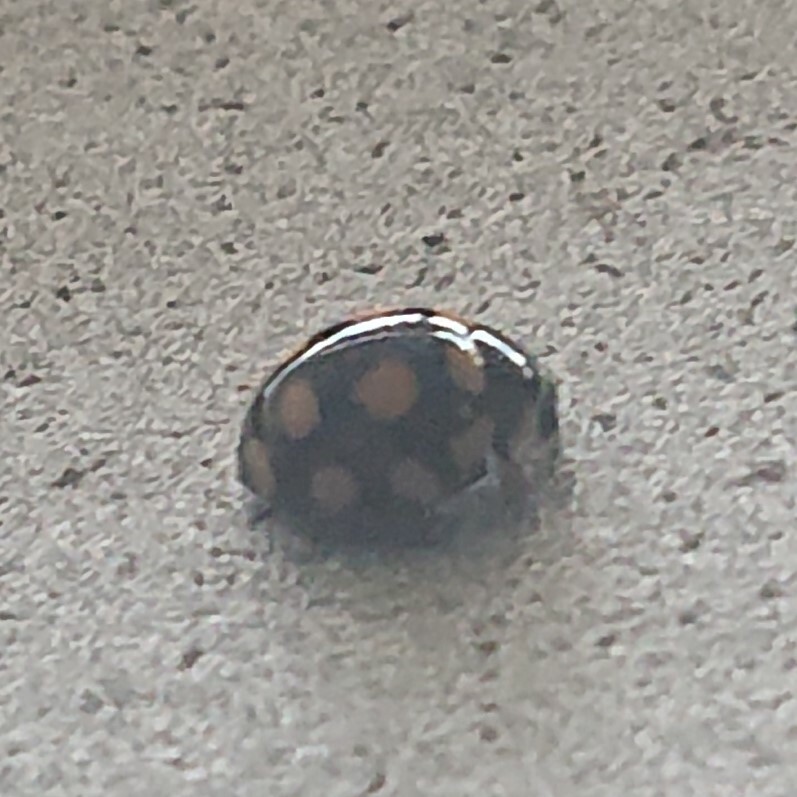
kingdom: Animalia
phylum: Arthropoda
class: Insecta
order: Coleoptera
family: Coccinellidae
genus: Coccinula
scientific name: Coccinula quatuordecimpustulata
